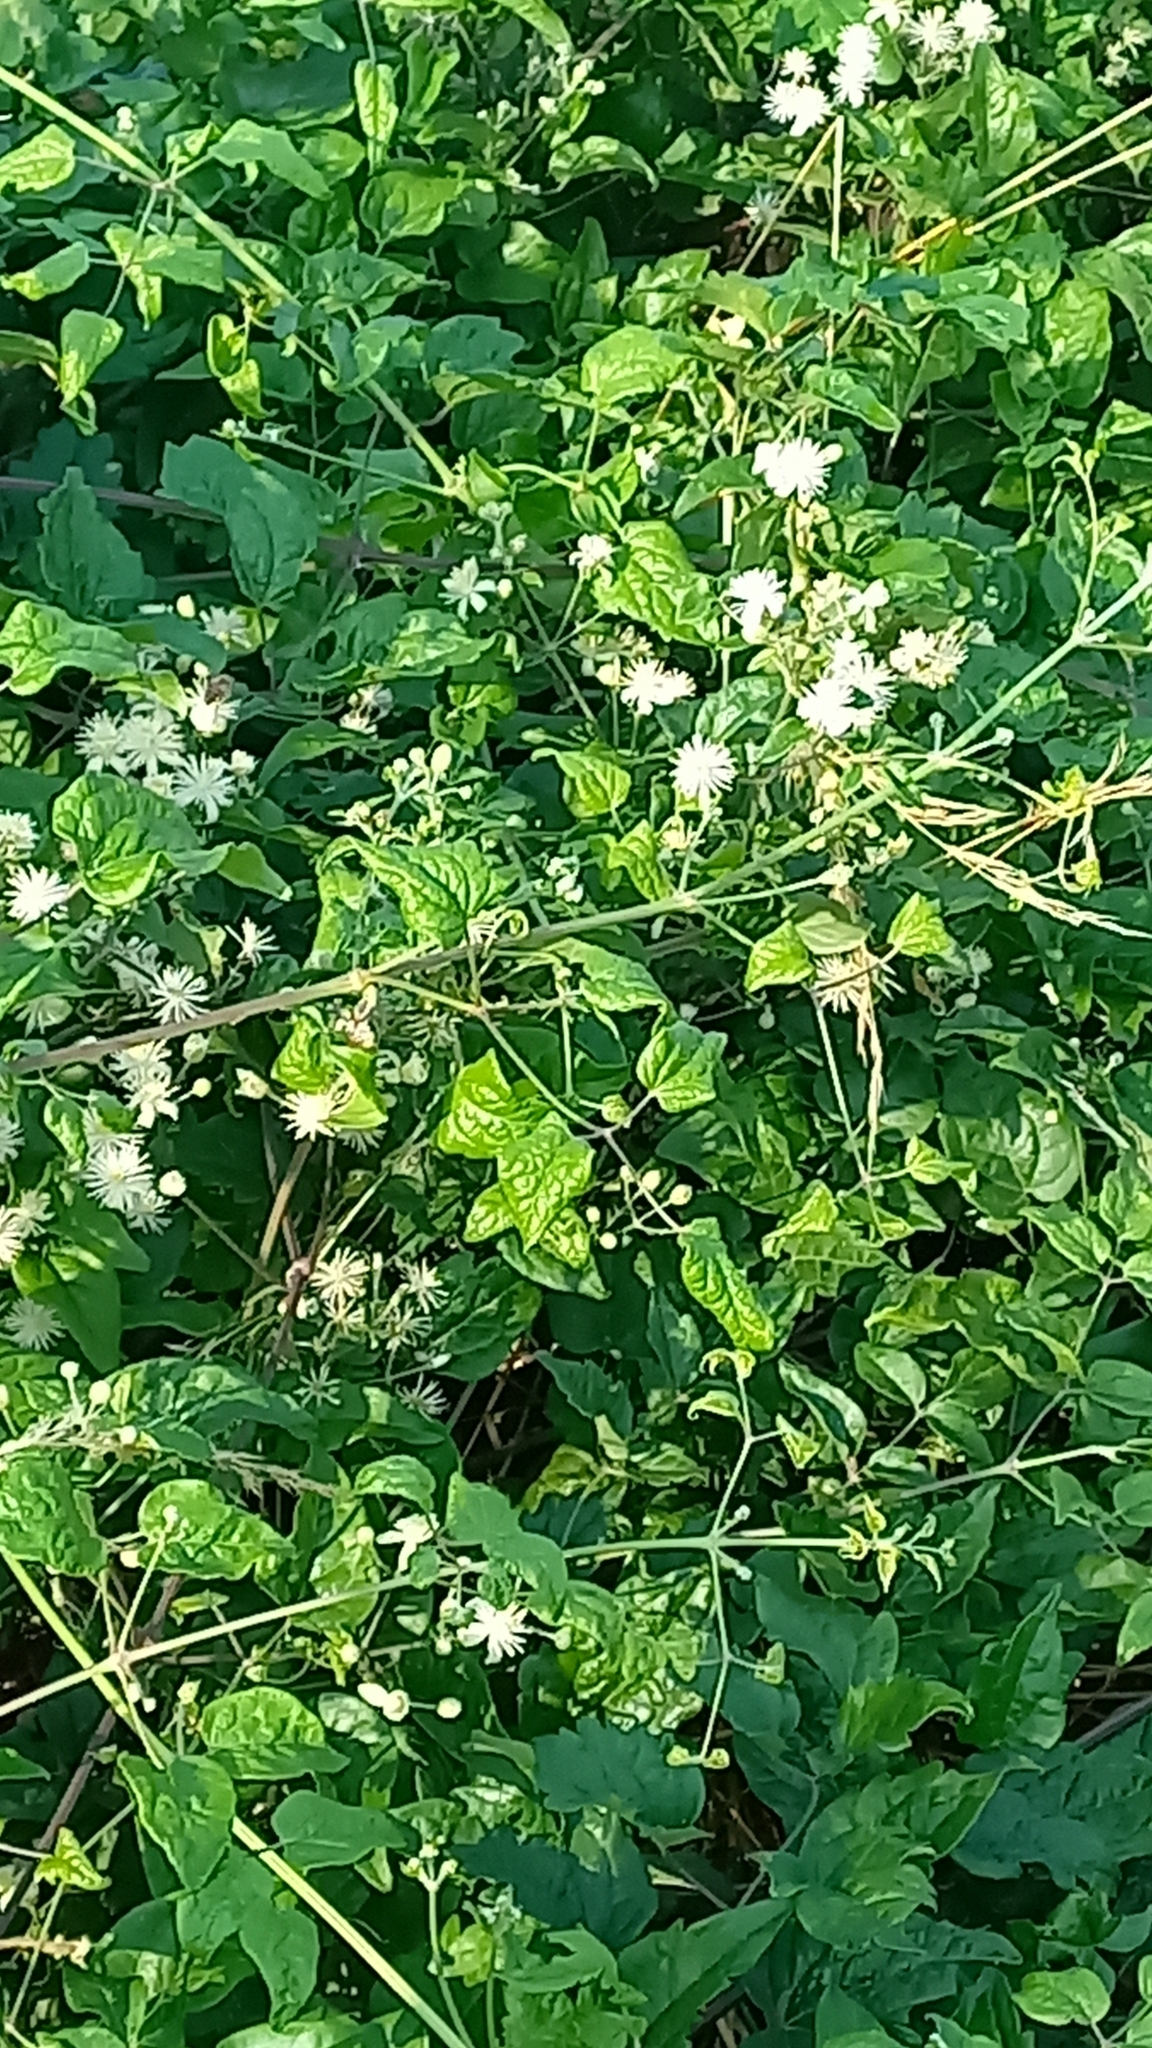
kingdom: Plantae
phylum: Tracheophyta
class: Magnoliopsida
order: Ranunculales
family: Ranunculaceae
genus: Clematis
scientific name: Clematis vitalba
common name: Evergreen clematis
